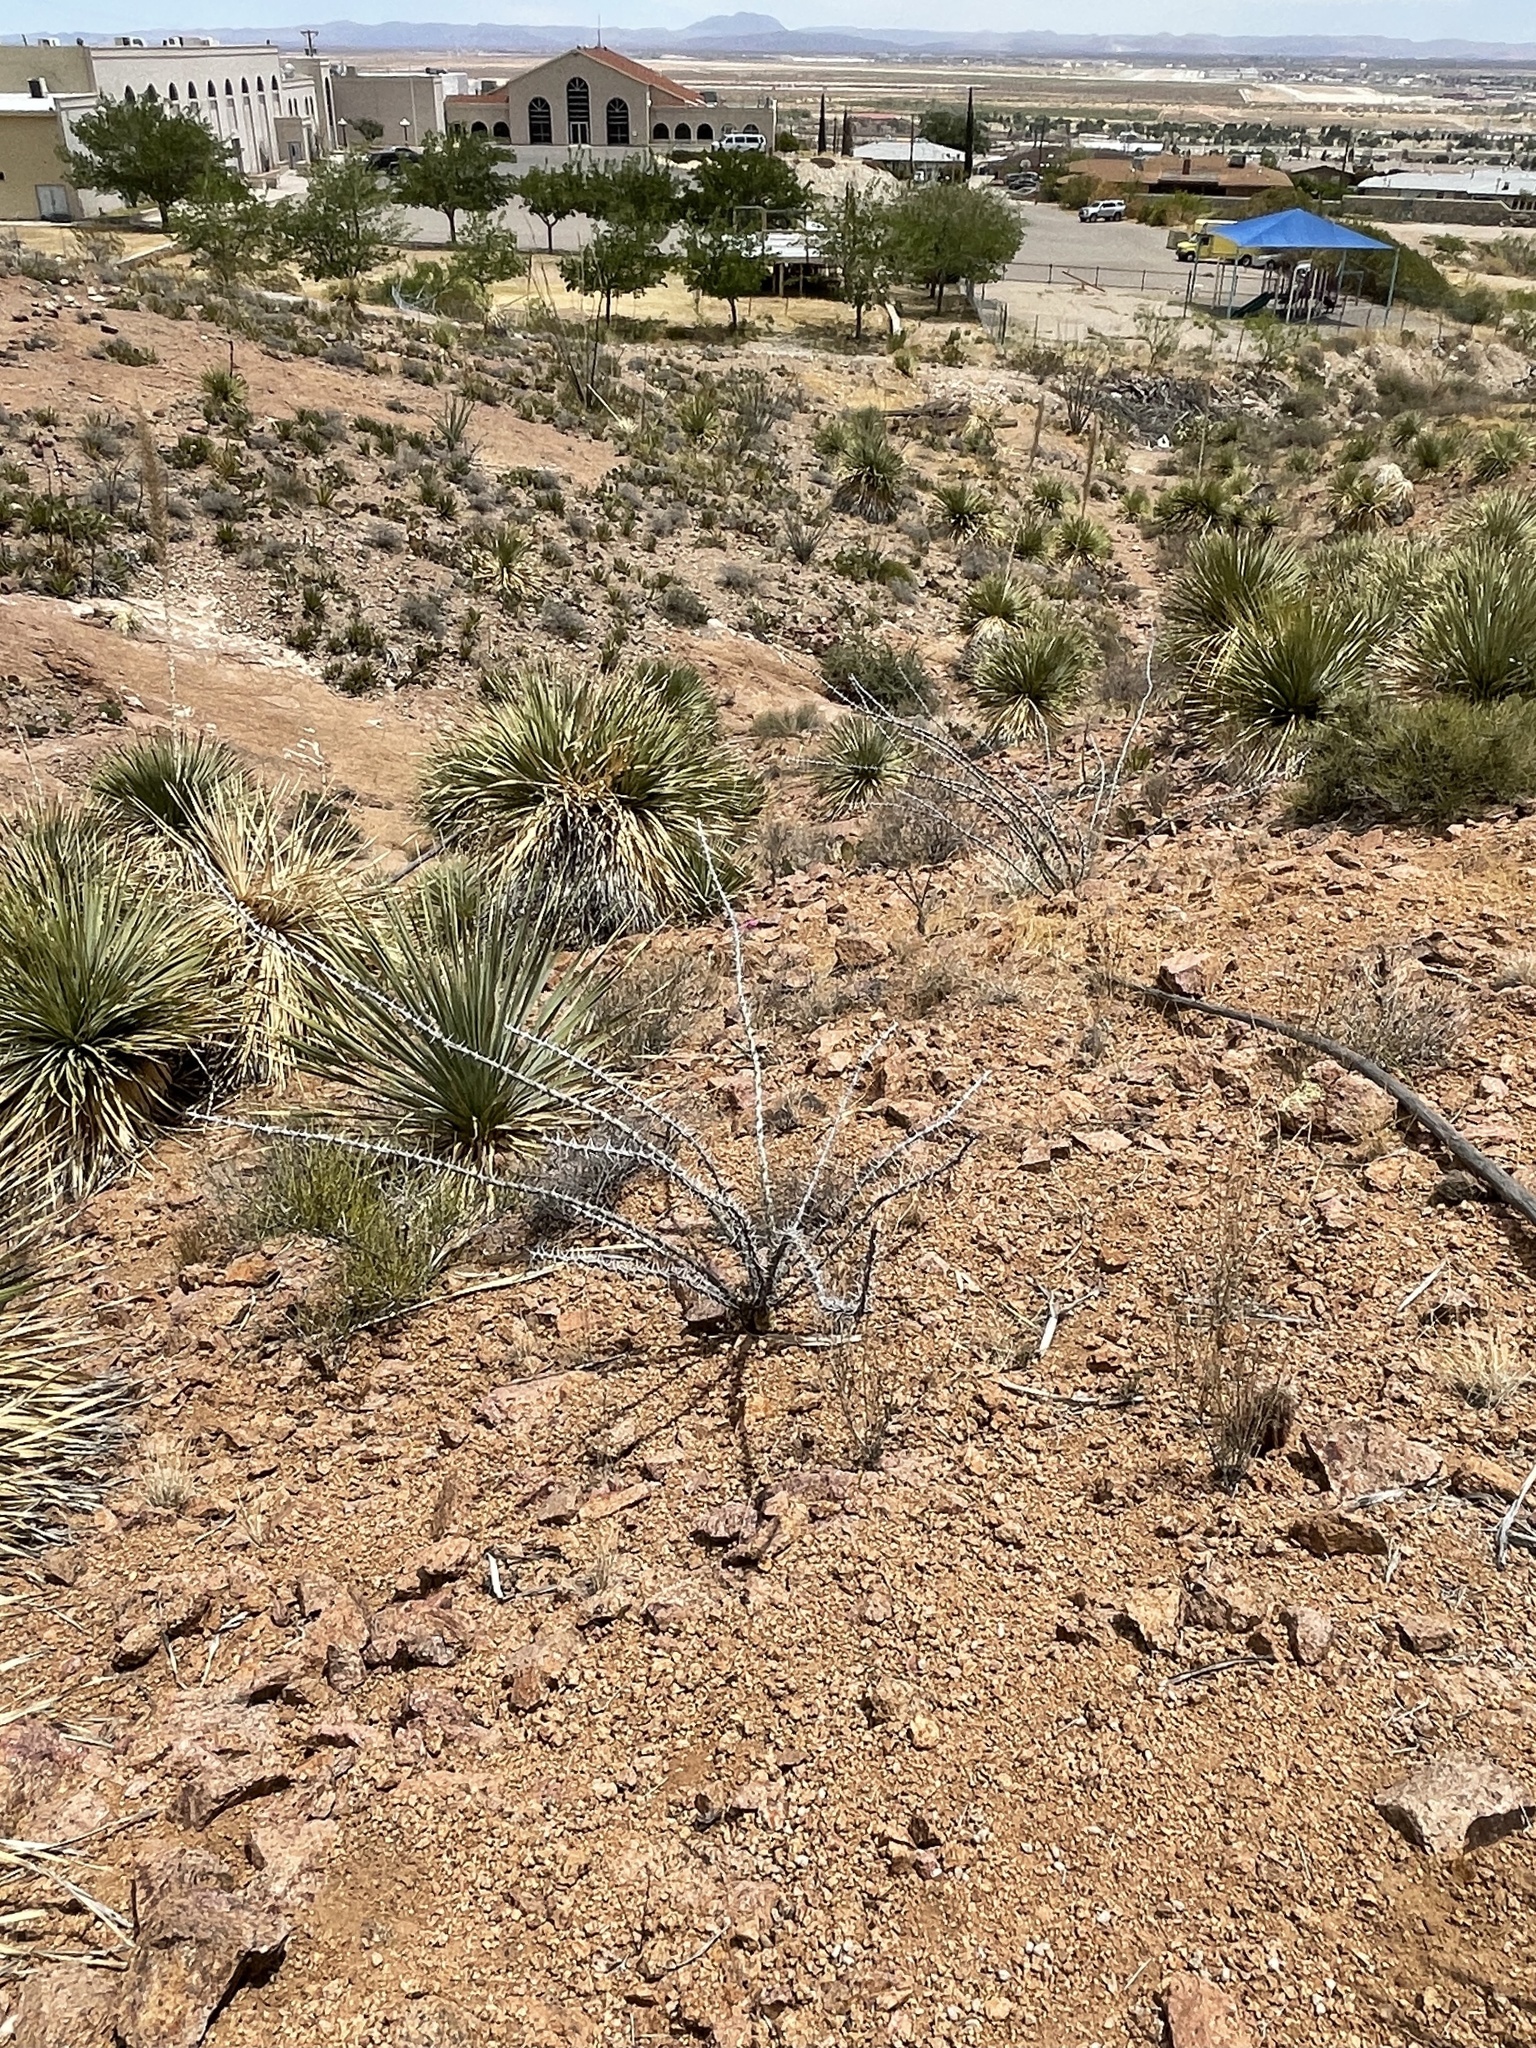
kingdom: Plantae
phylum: Tracheophyta
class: Magnoliopsida
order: Ericales
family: Fouquieriaceae
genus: Fouquieria
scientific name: Fouquieria splendens
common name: Vine-cactus
